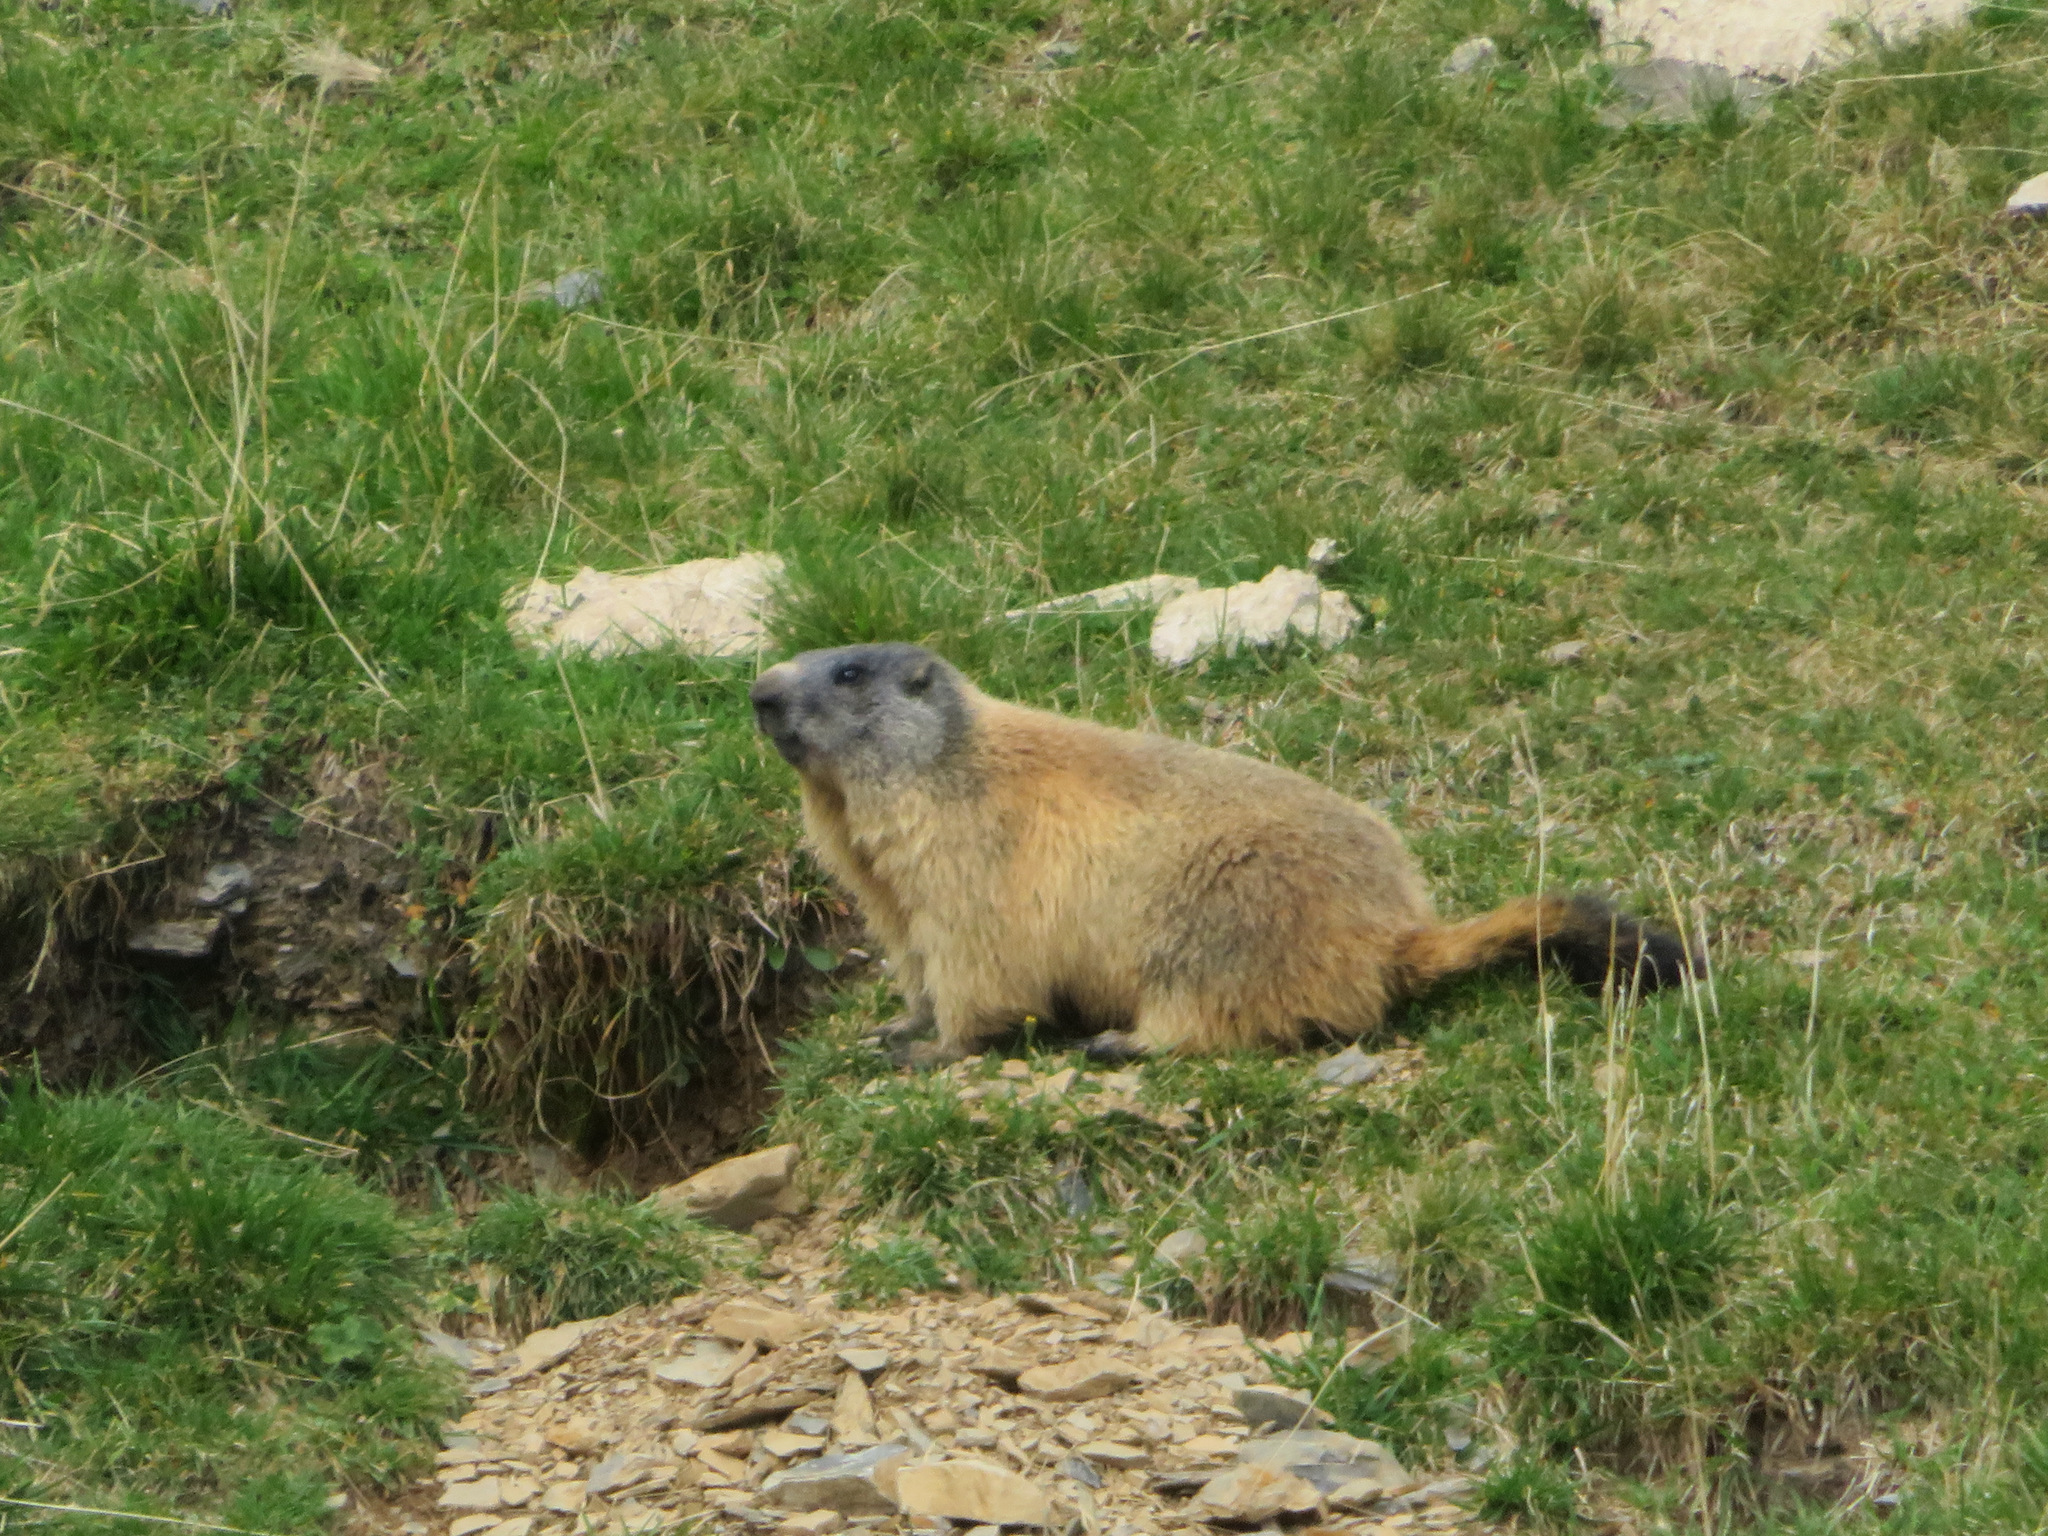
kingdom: Animalia
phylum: Chordata
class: Mammalia
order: Rodentia
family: Sciuridae
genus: Marmota
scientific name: Marmota marmota
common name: Alpine marmot
